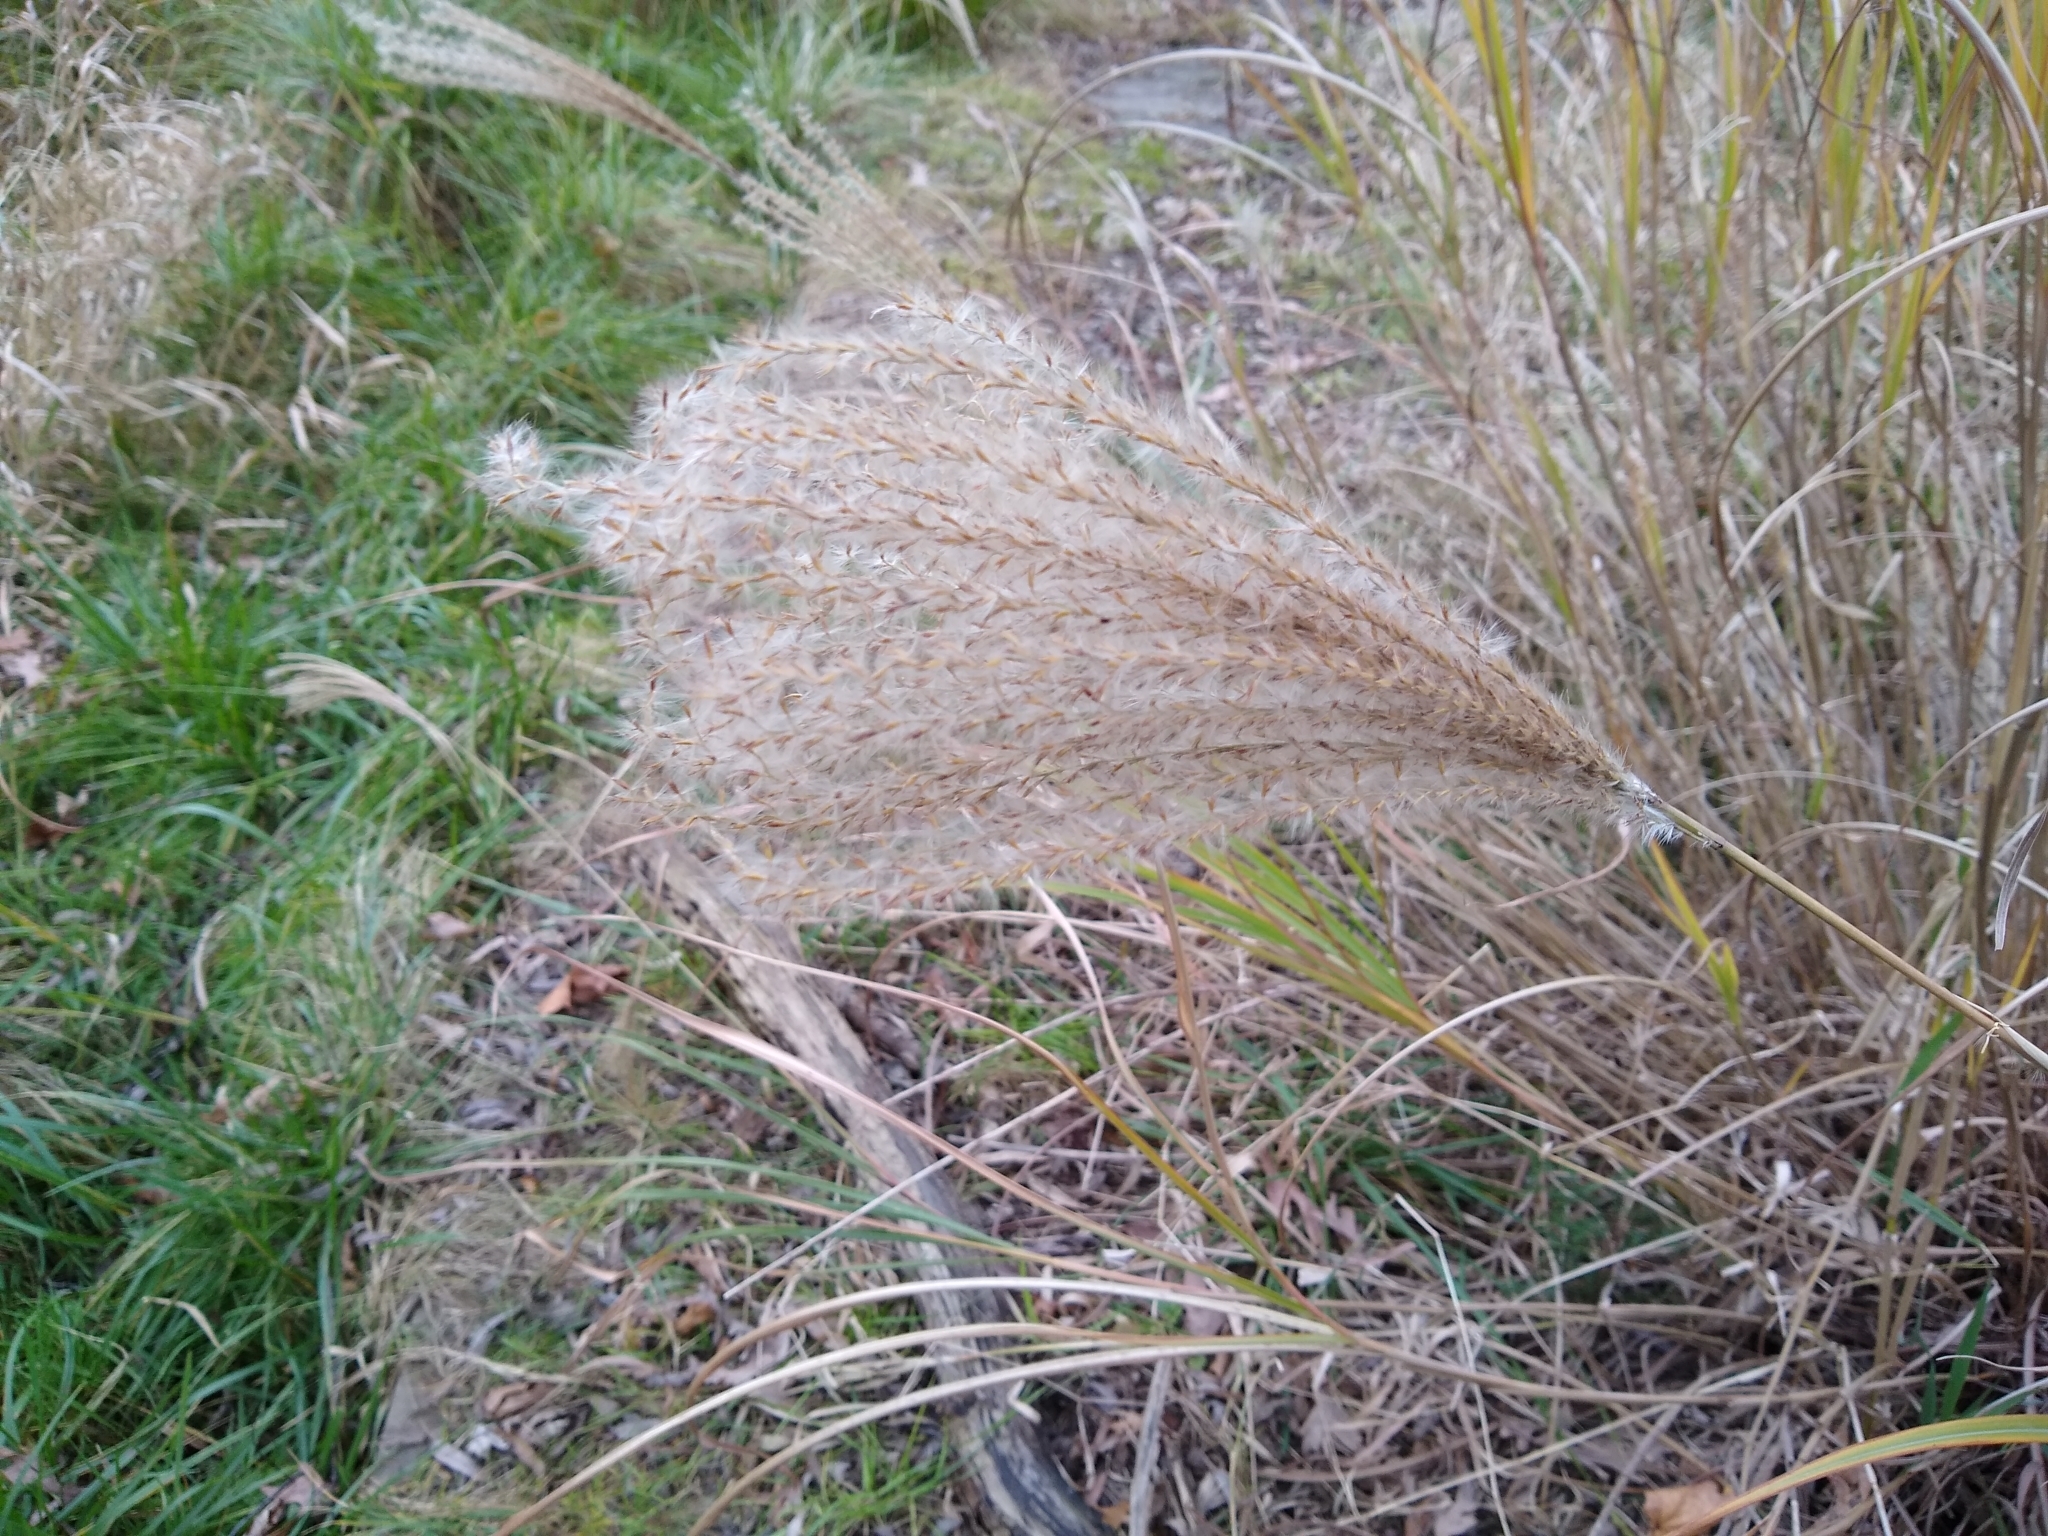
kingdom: Plantae
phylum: Tracheophyta
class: Liliopsida
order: Poales
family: Poaceae
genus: Miscanthus
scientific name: Miscanthus sinensis
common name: Chinese silvergrass
